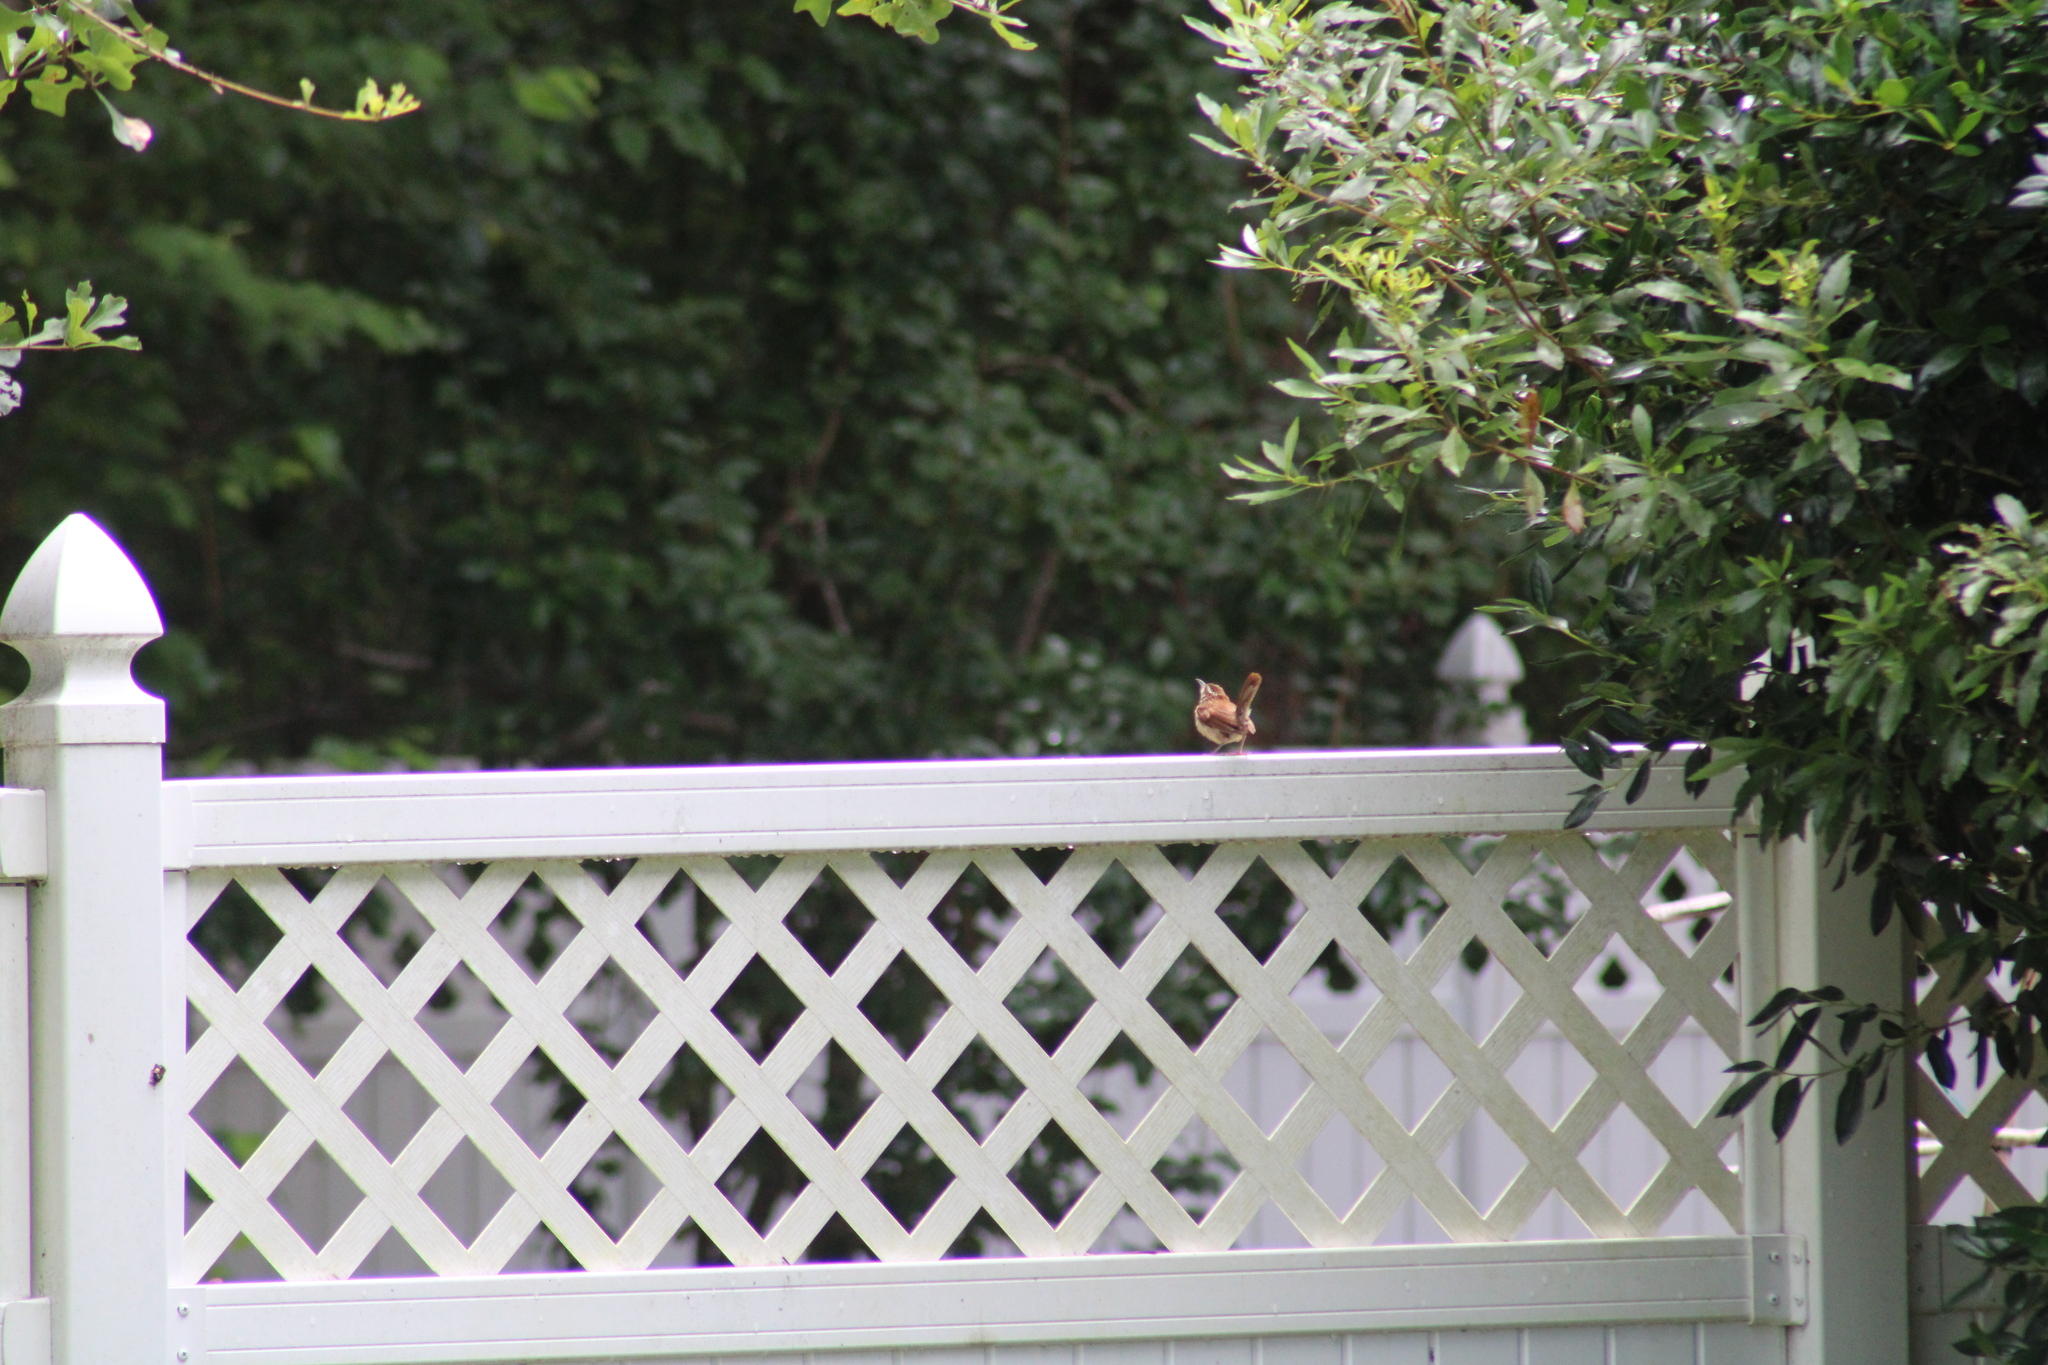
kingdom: Animalia
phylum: Chordata
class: Aves
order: Passeriformes
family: Troglodytidae
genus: Thryothorus
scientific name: Thryothorus ludovicianus
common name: Carolina wren
